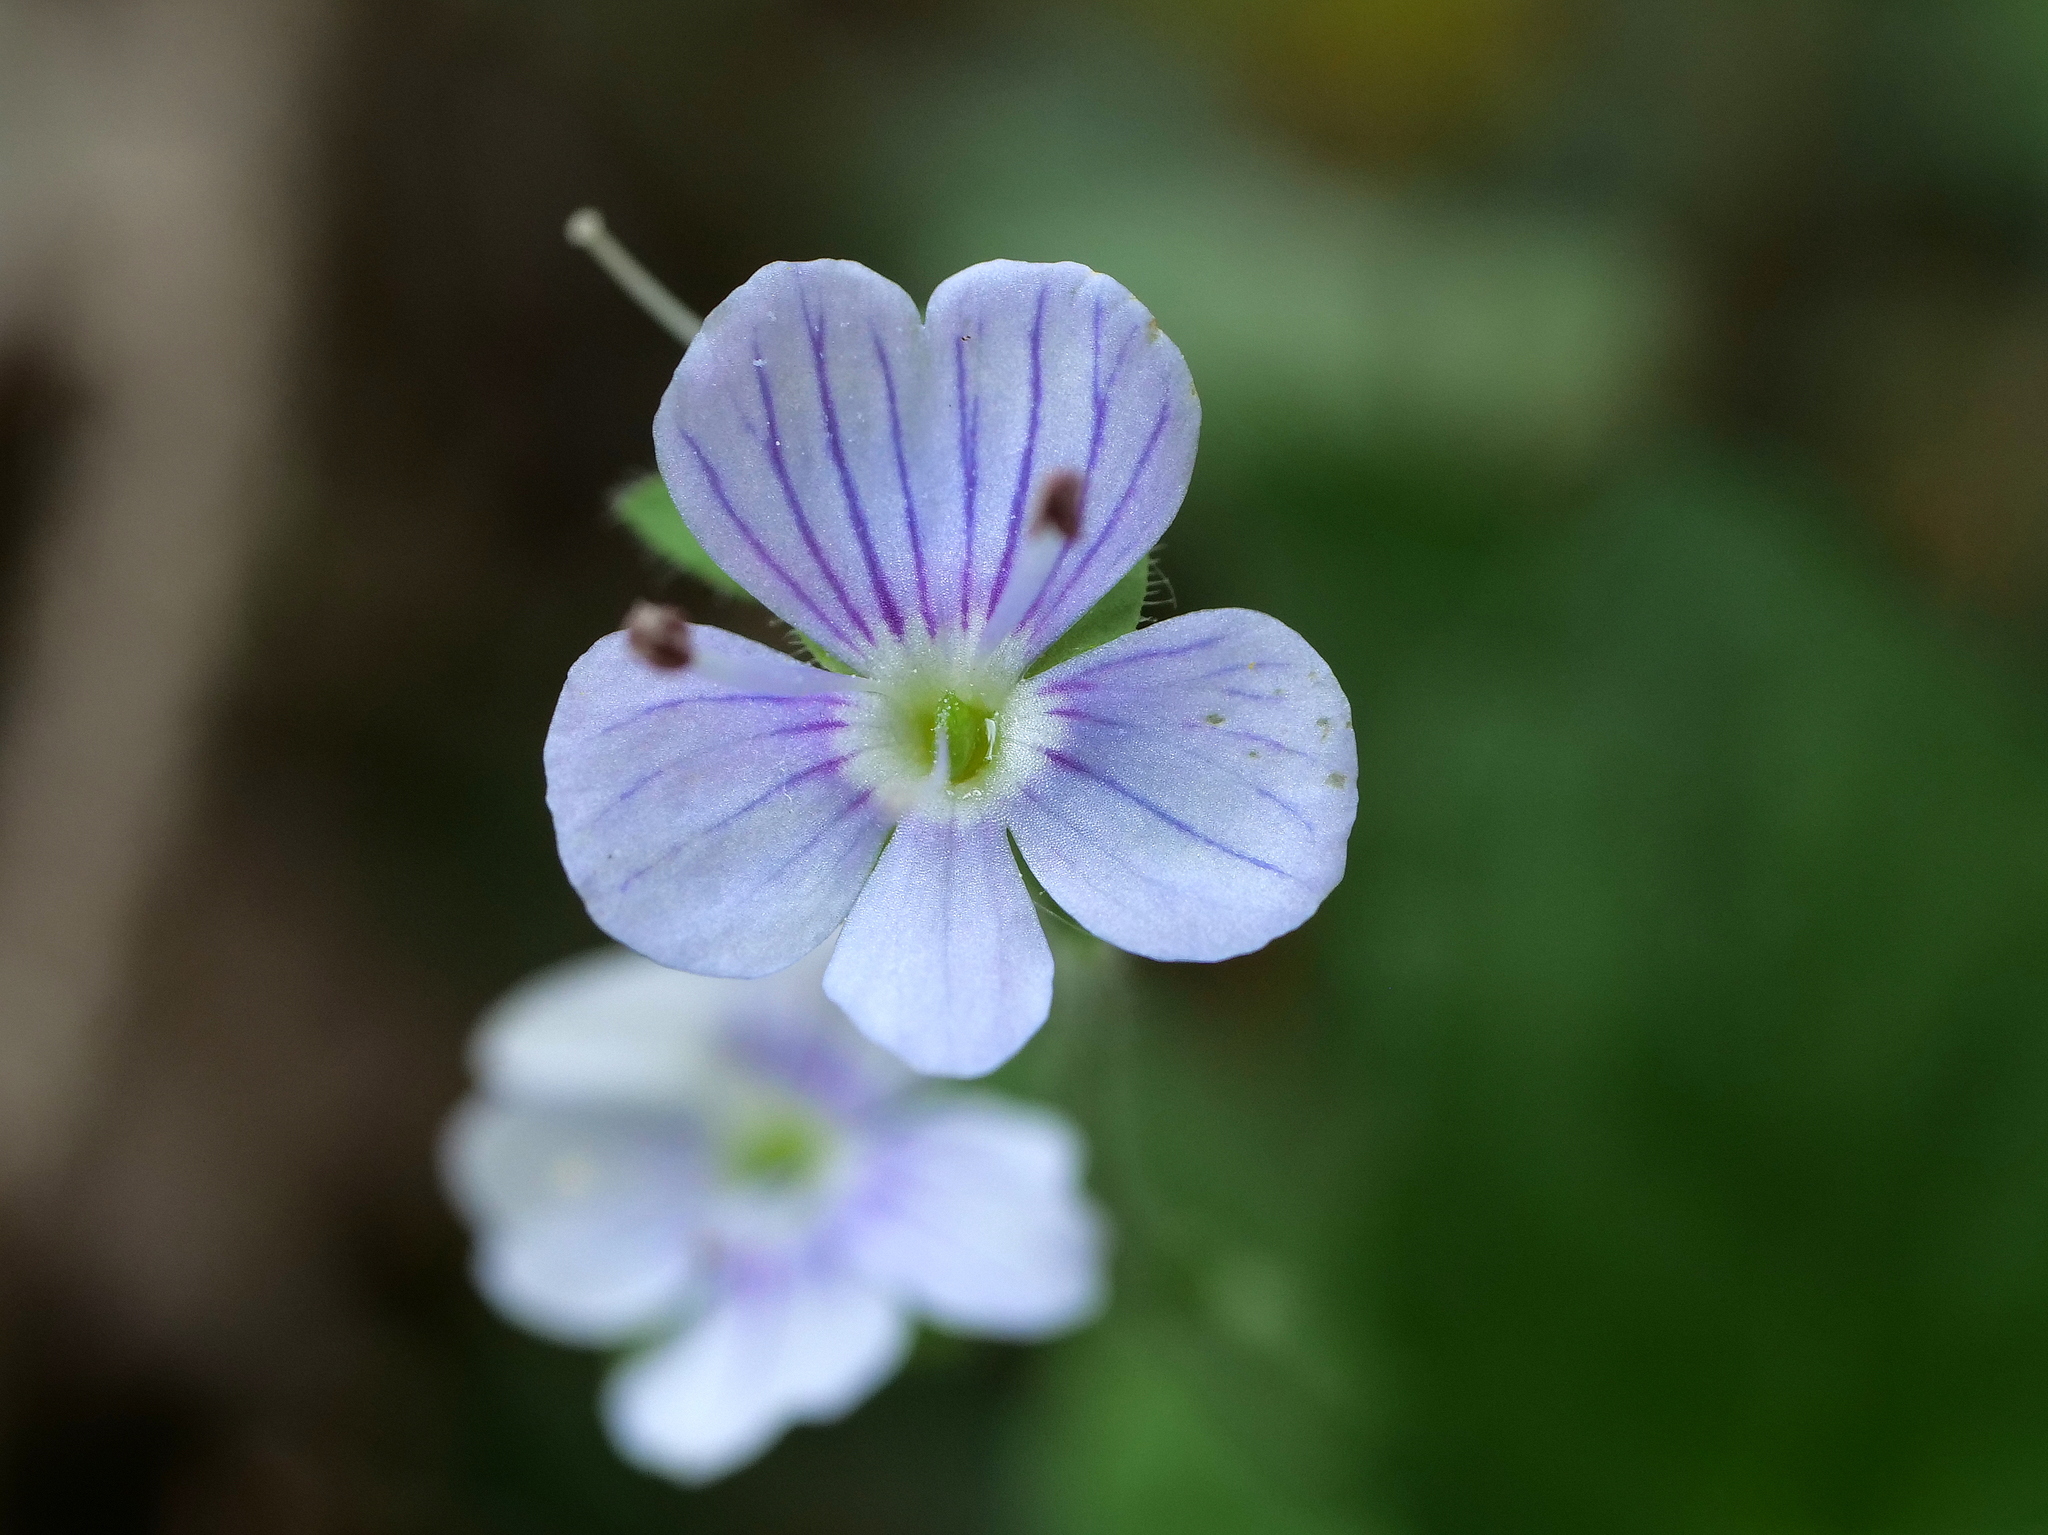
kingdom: Plantae
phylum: Tracheophyta
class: Magnoliopsida
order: Lamiales
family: Plantaginaceae
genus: Veronica
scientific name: Veronica montana
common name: Wood speedwell
